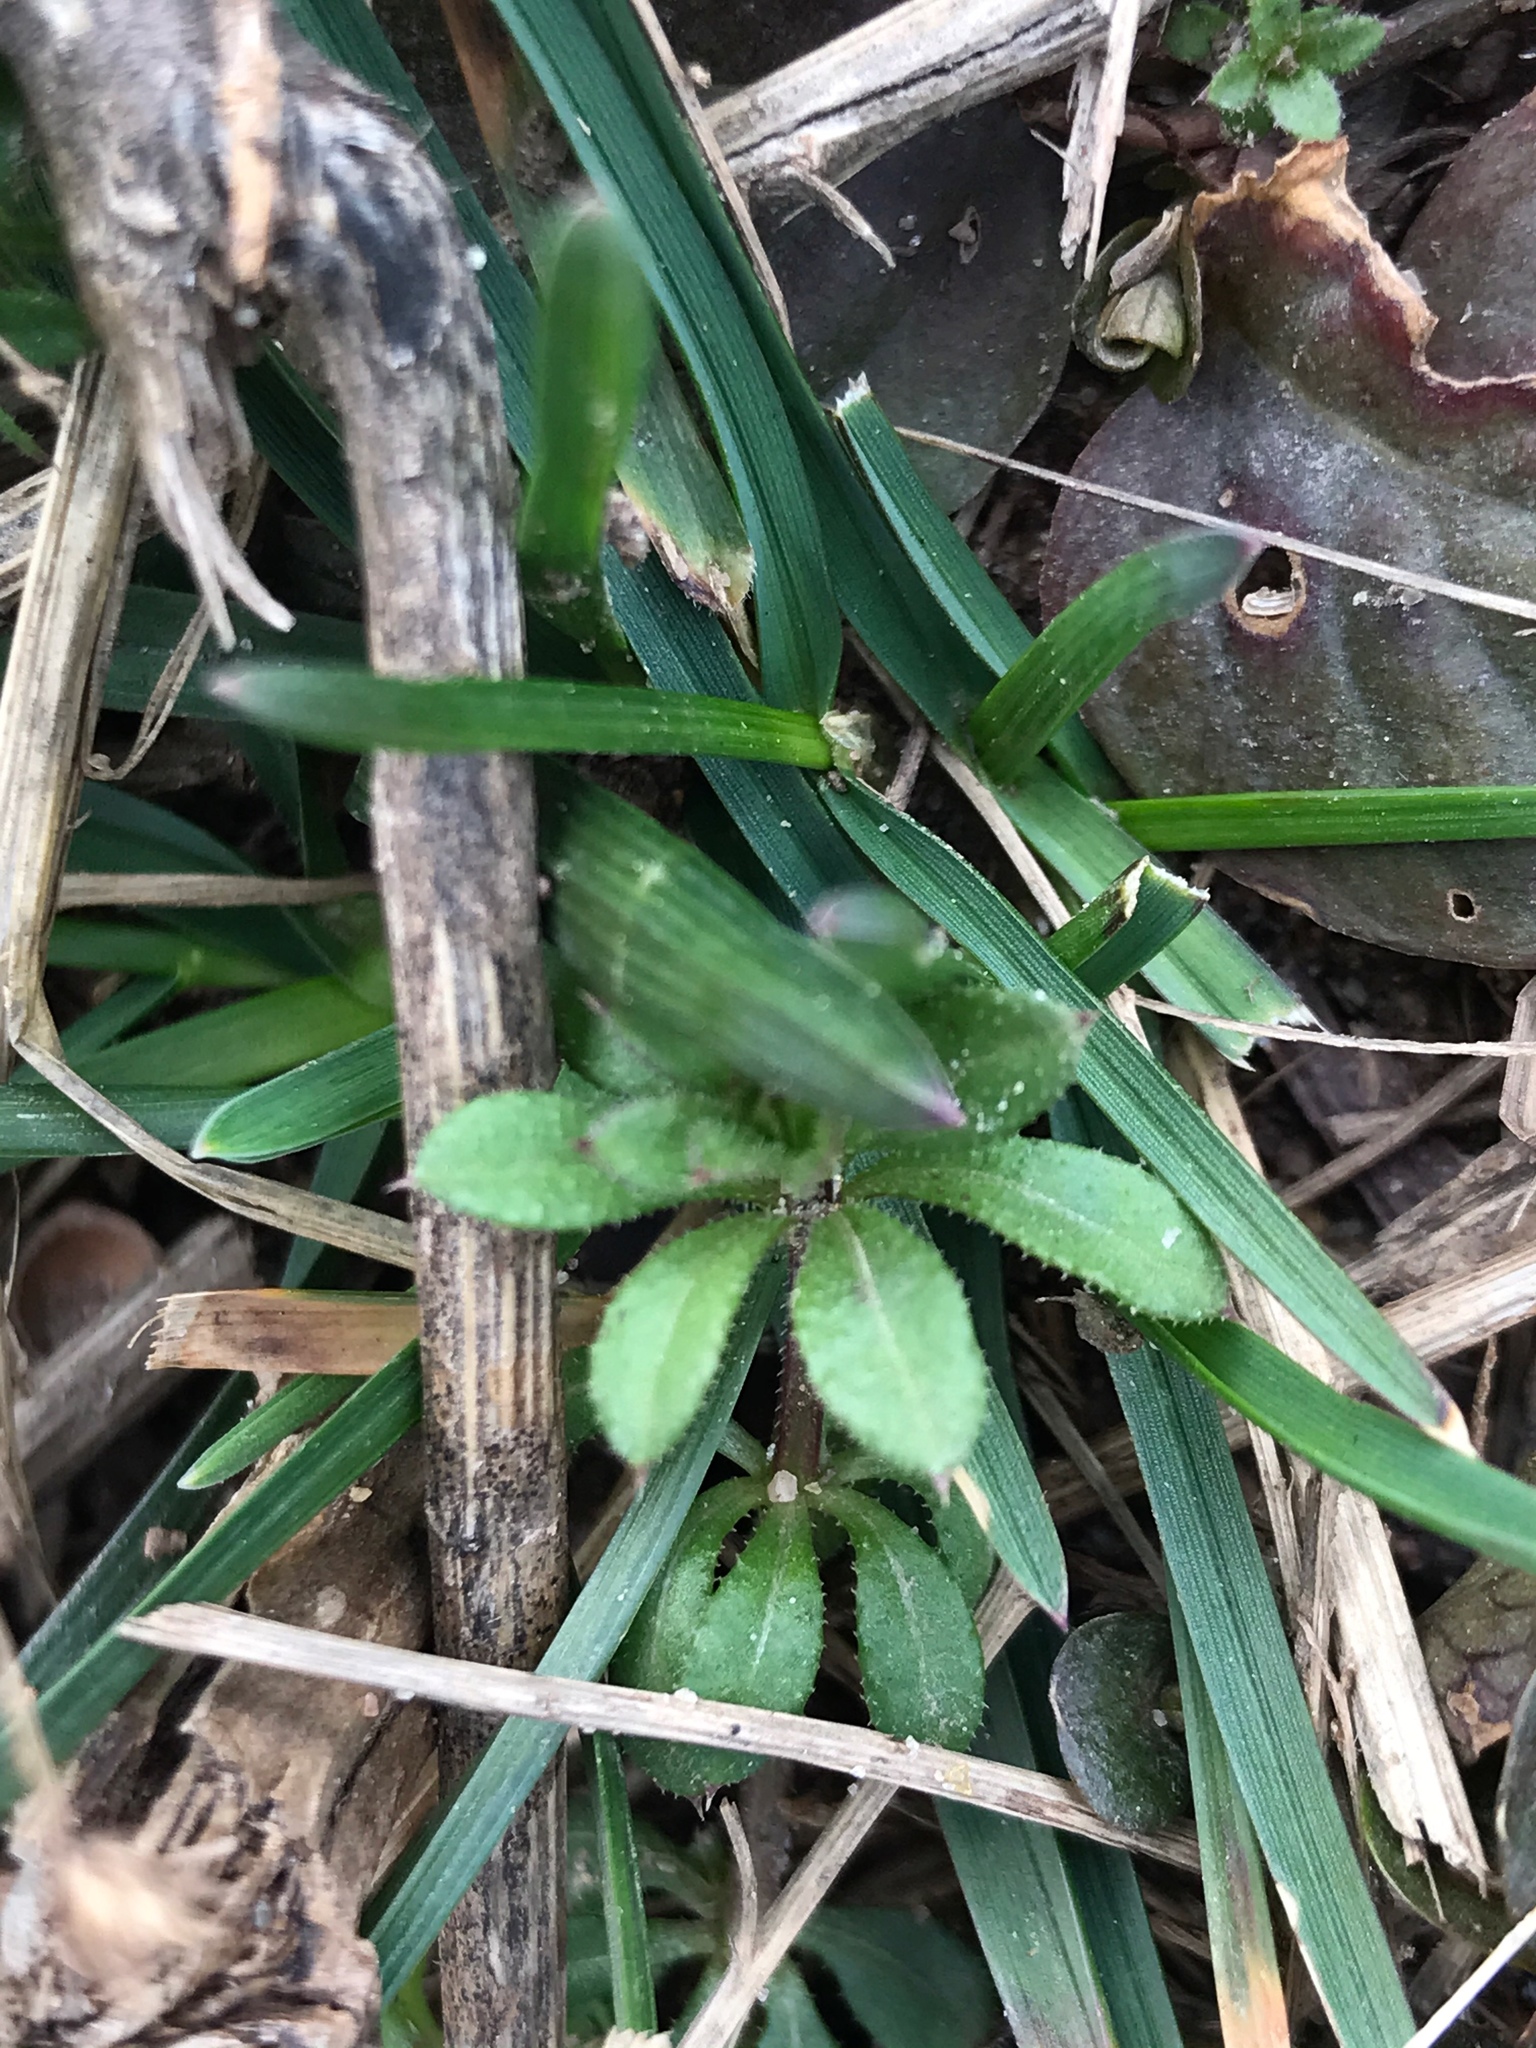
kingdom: Plantae
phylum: Tracheophyta
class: Magnoliopsida
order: Gentianales
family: Rubiaceae
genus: Galium
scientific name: Galium aparine
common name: Cleavers
